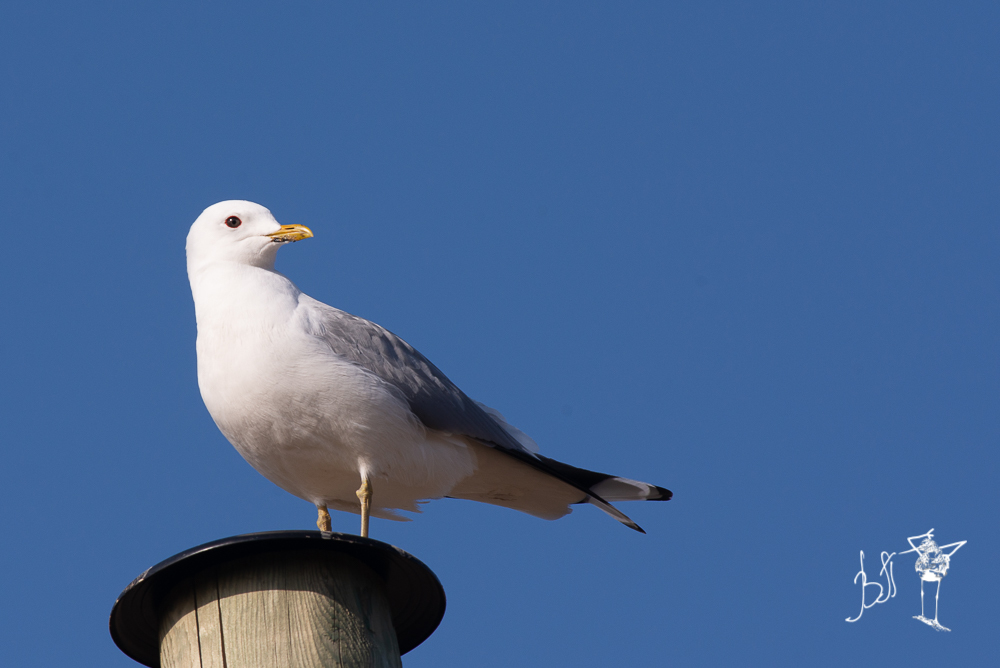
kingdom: Animalia
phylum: Chordata
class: Aves
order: Charadriiformes
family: Laridae
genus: Larus
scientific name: Larus canus
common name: Mew gull
